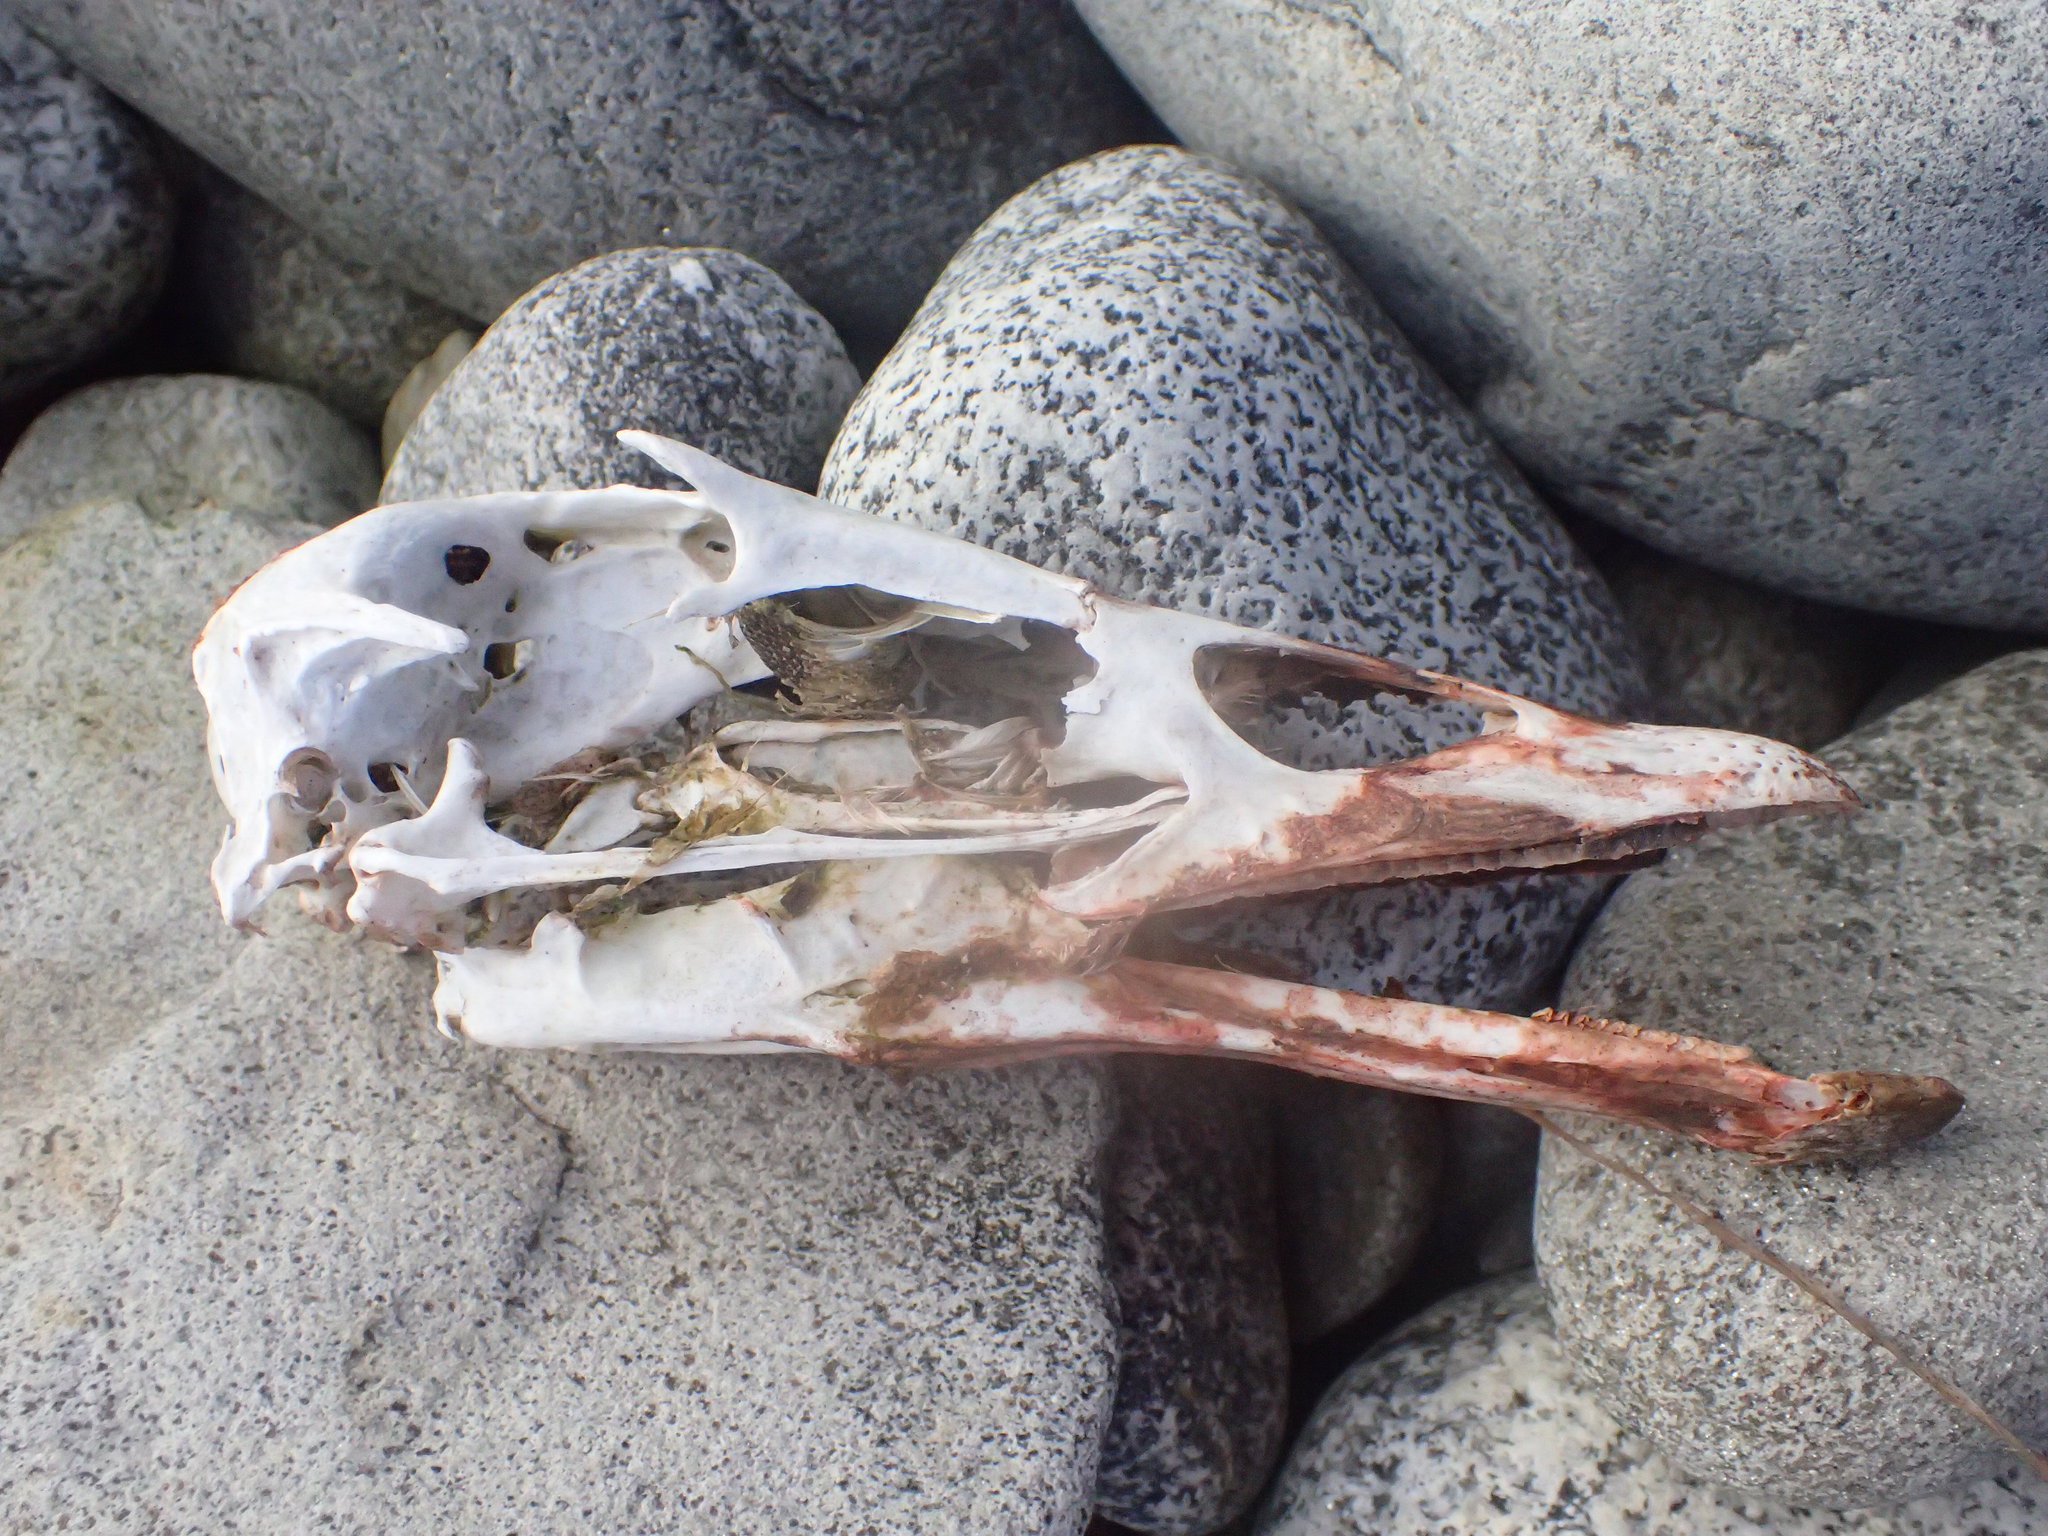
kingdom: Animalia
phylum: Chordata
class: Aves
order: Anseriformes
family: Anatidae
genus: Somateria
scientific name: Somateria mollissima
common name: Common eider
